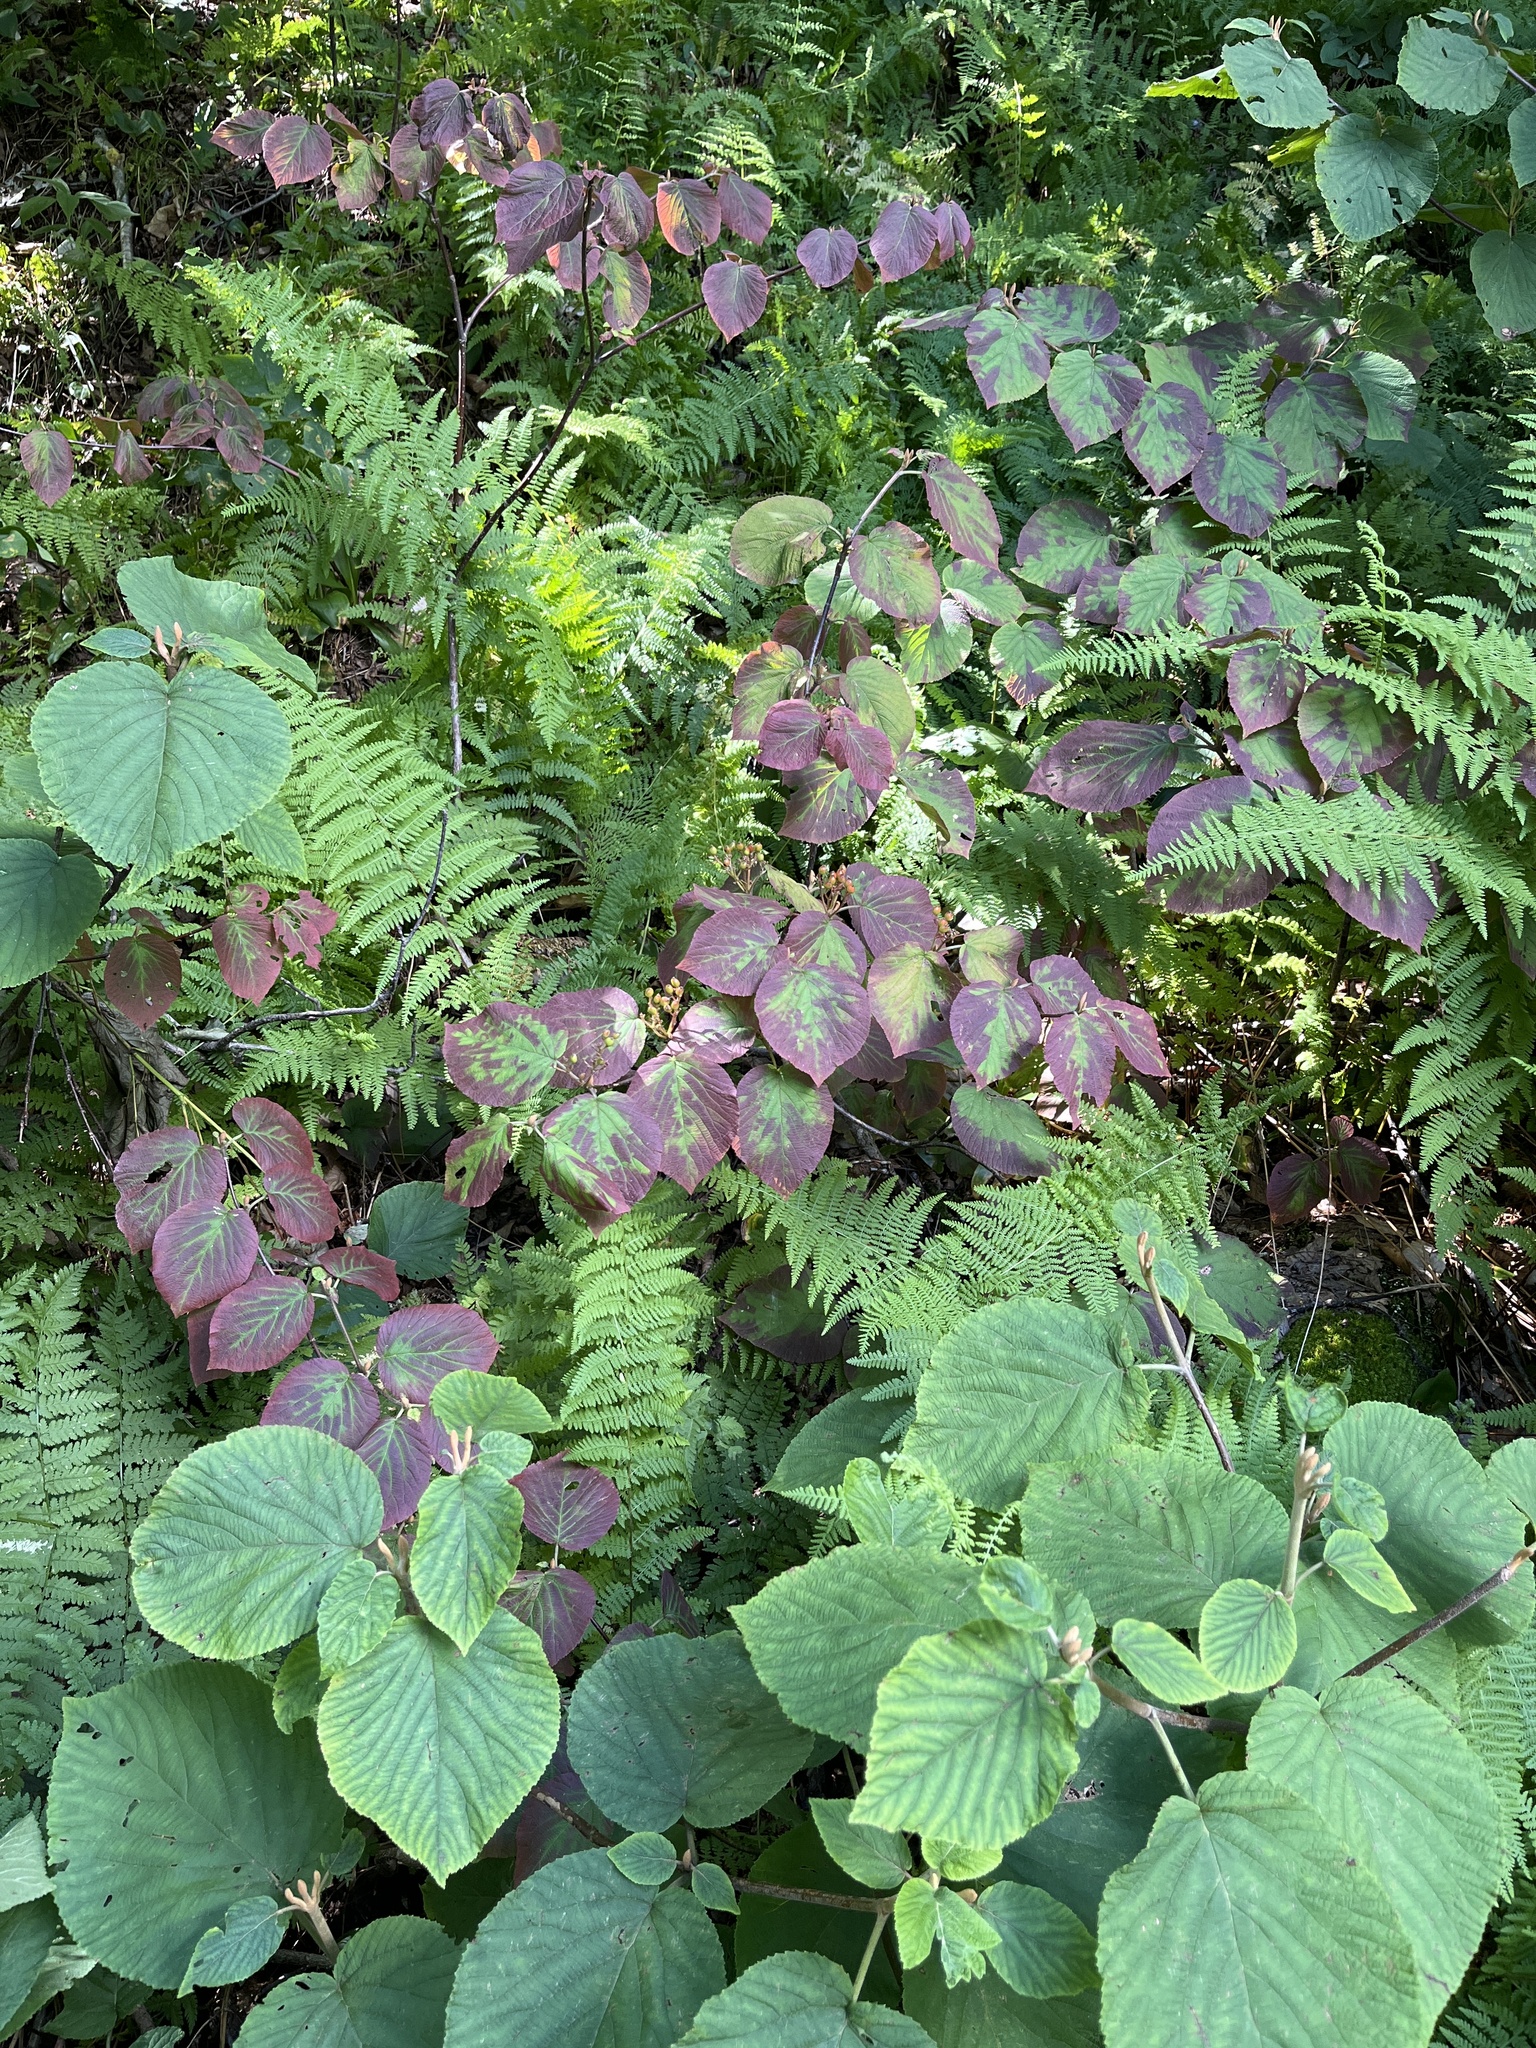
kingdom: Plantae
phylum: Tracheophyta
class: Magnoliopsida
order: Dipsacales
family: Viburnaceae
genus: Viburnum
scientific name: Viburnum lantanoides
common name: Hobblebush
